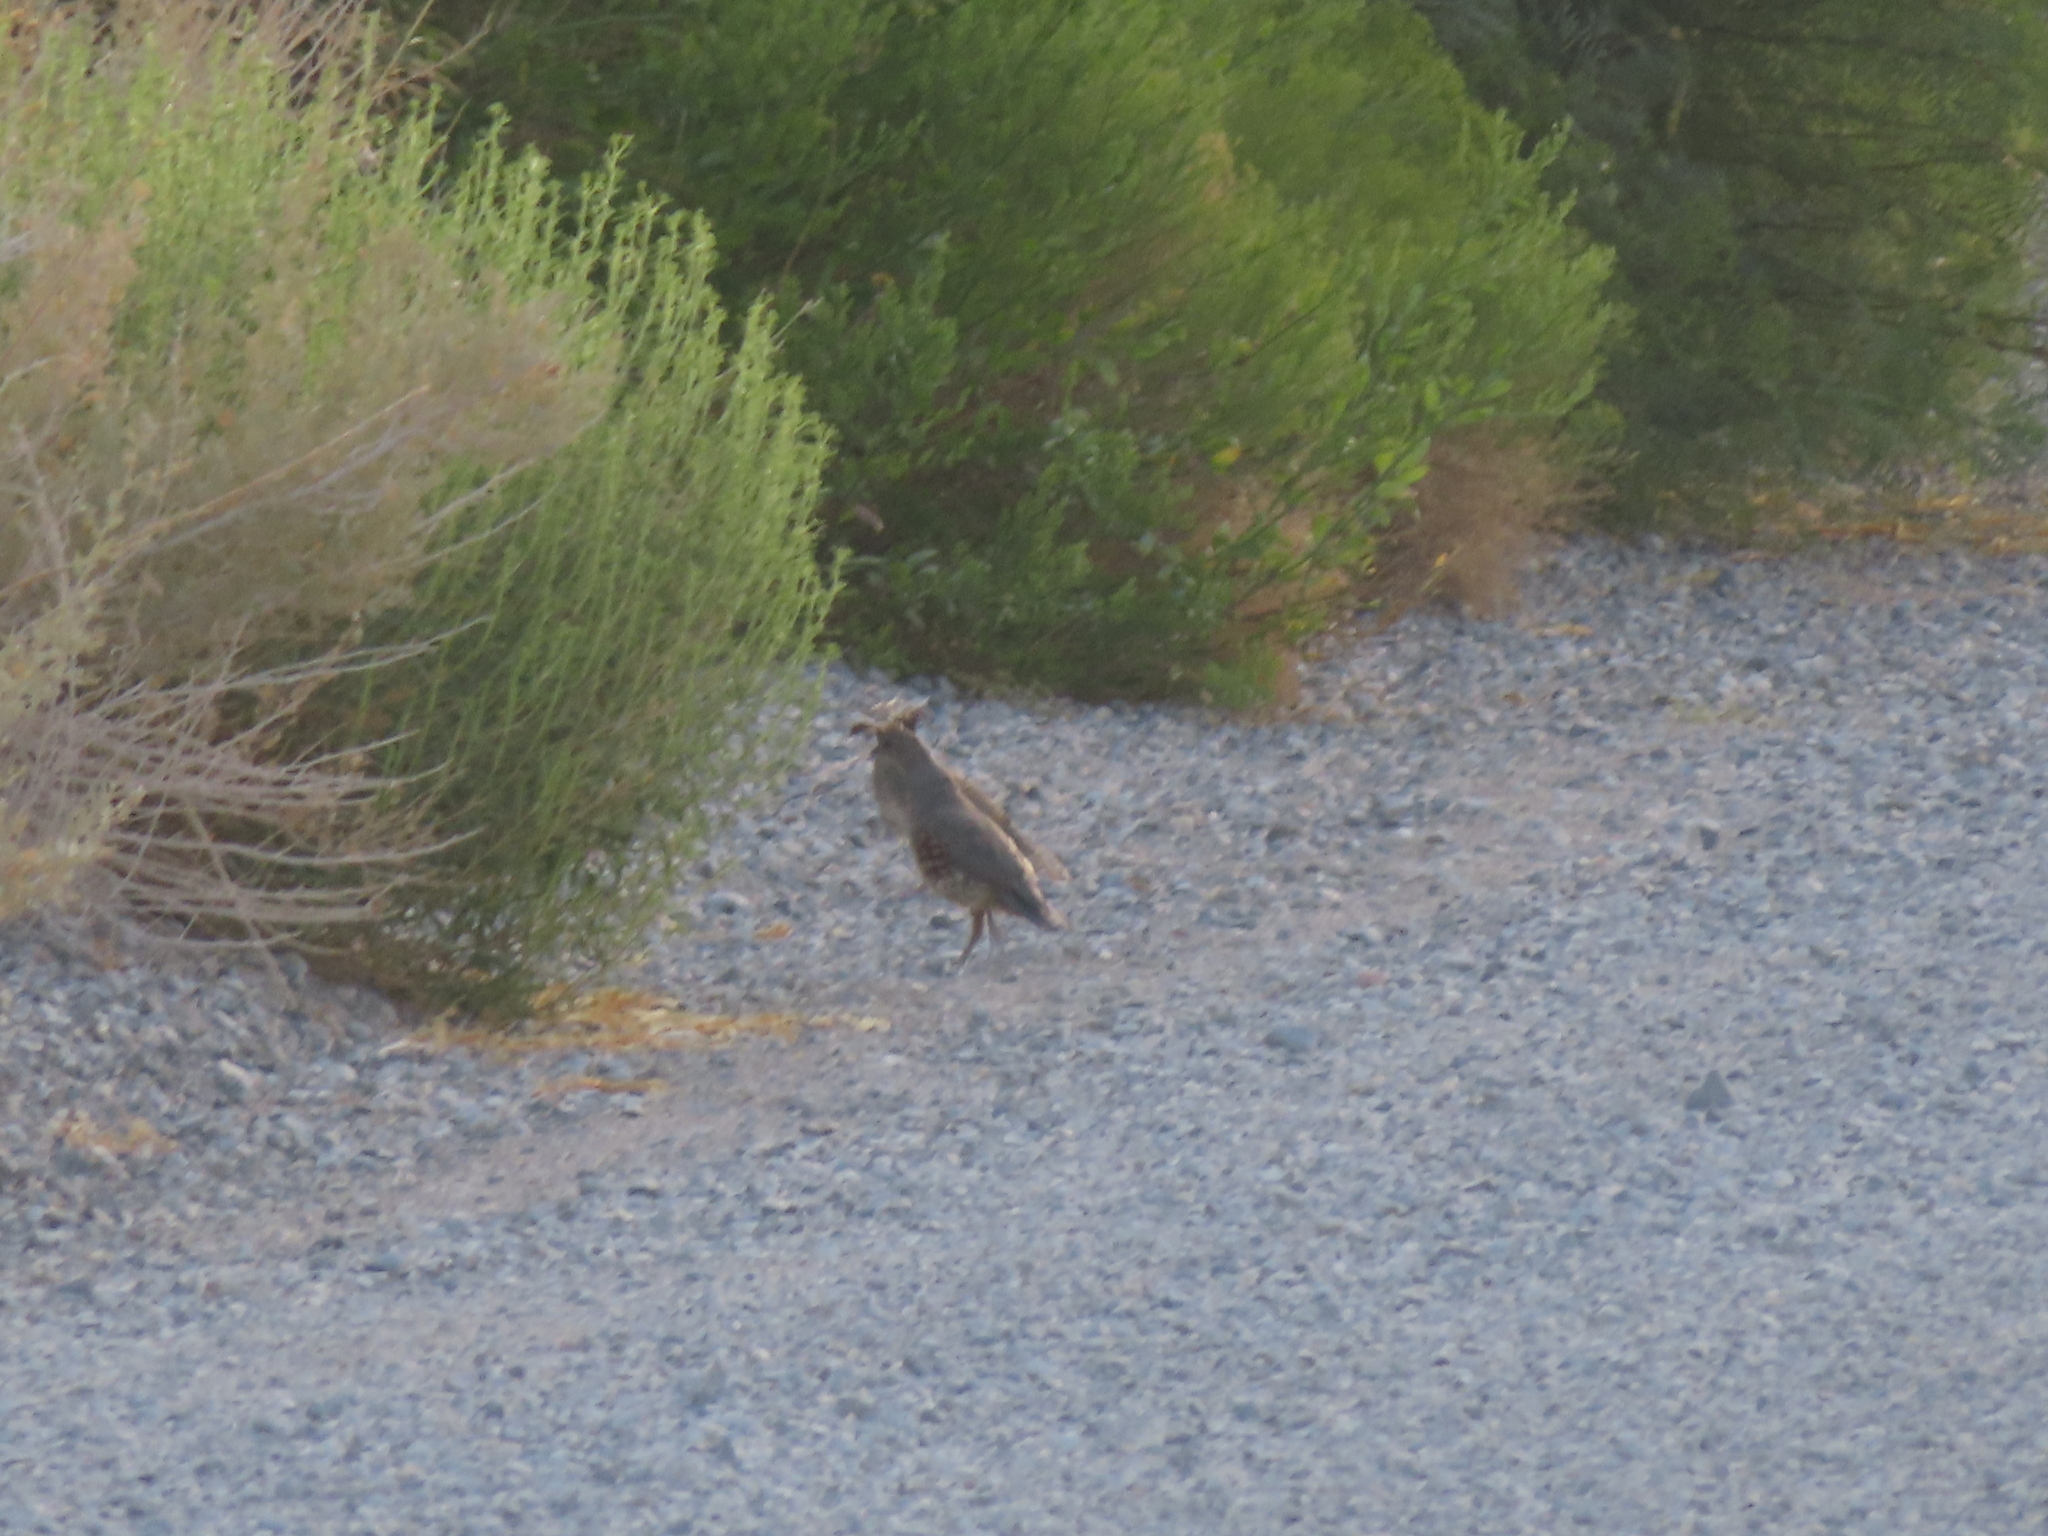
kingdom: Animalia
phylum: Chordata
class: Aves
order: Galliformes
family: Odontophoridae
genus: Callipepla
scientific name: Callipepla gambelii
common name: Gambel's quail
